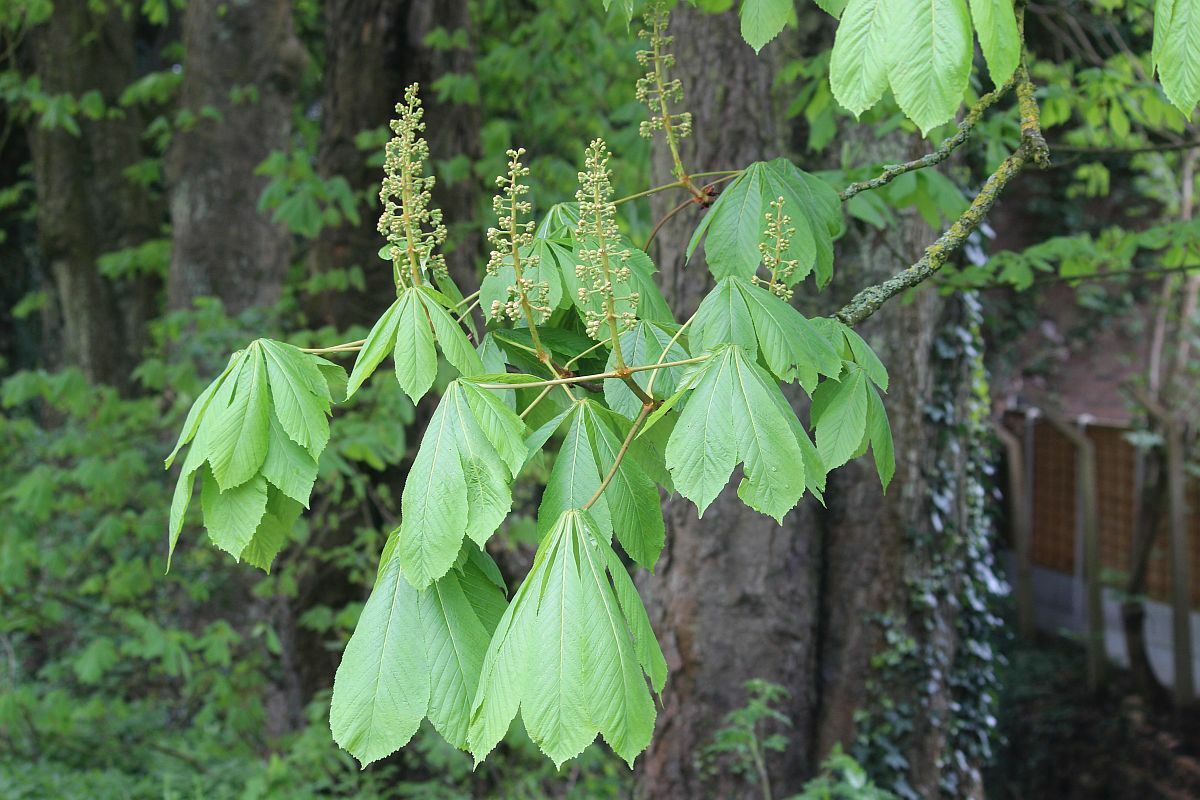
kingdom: Plantae
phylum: Tracheophyta
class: Magnoliopsida
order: Sapindales
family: Sapindaceae
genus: Aesculus
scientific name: Aesculus hippocastanum
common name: Horse-chestnut
